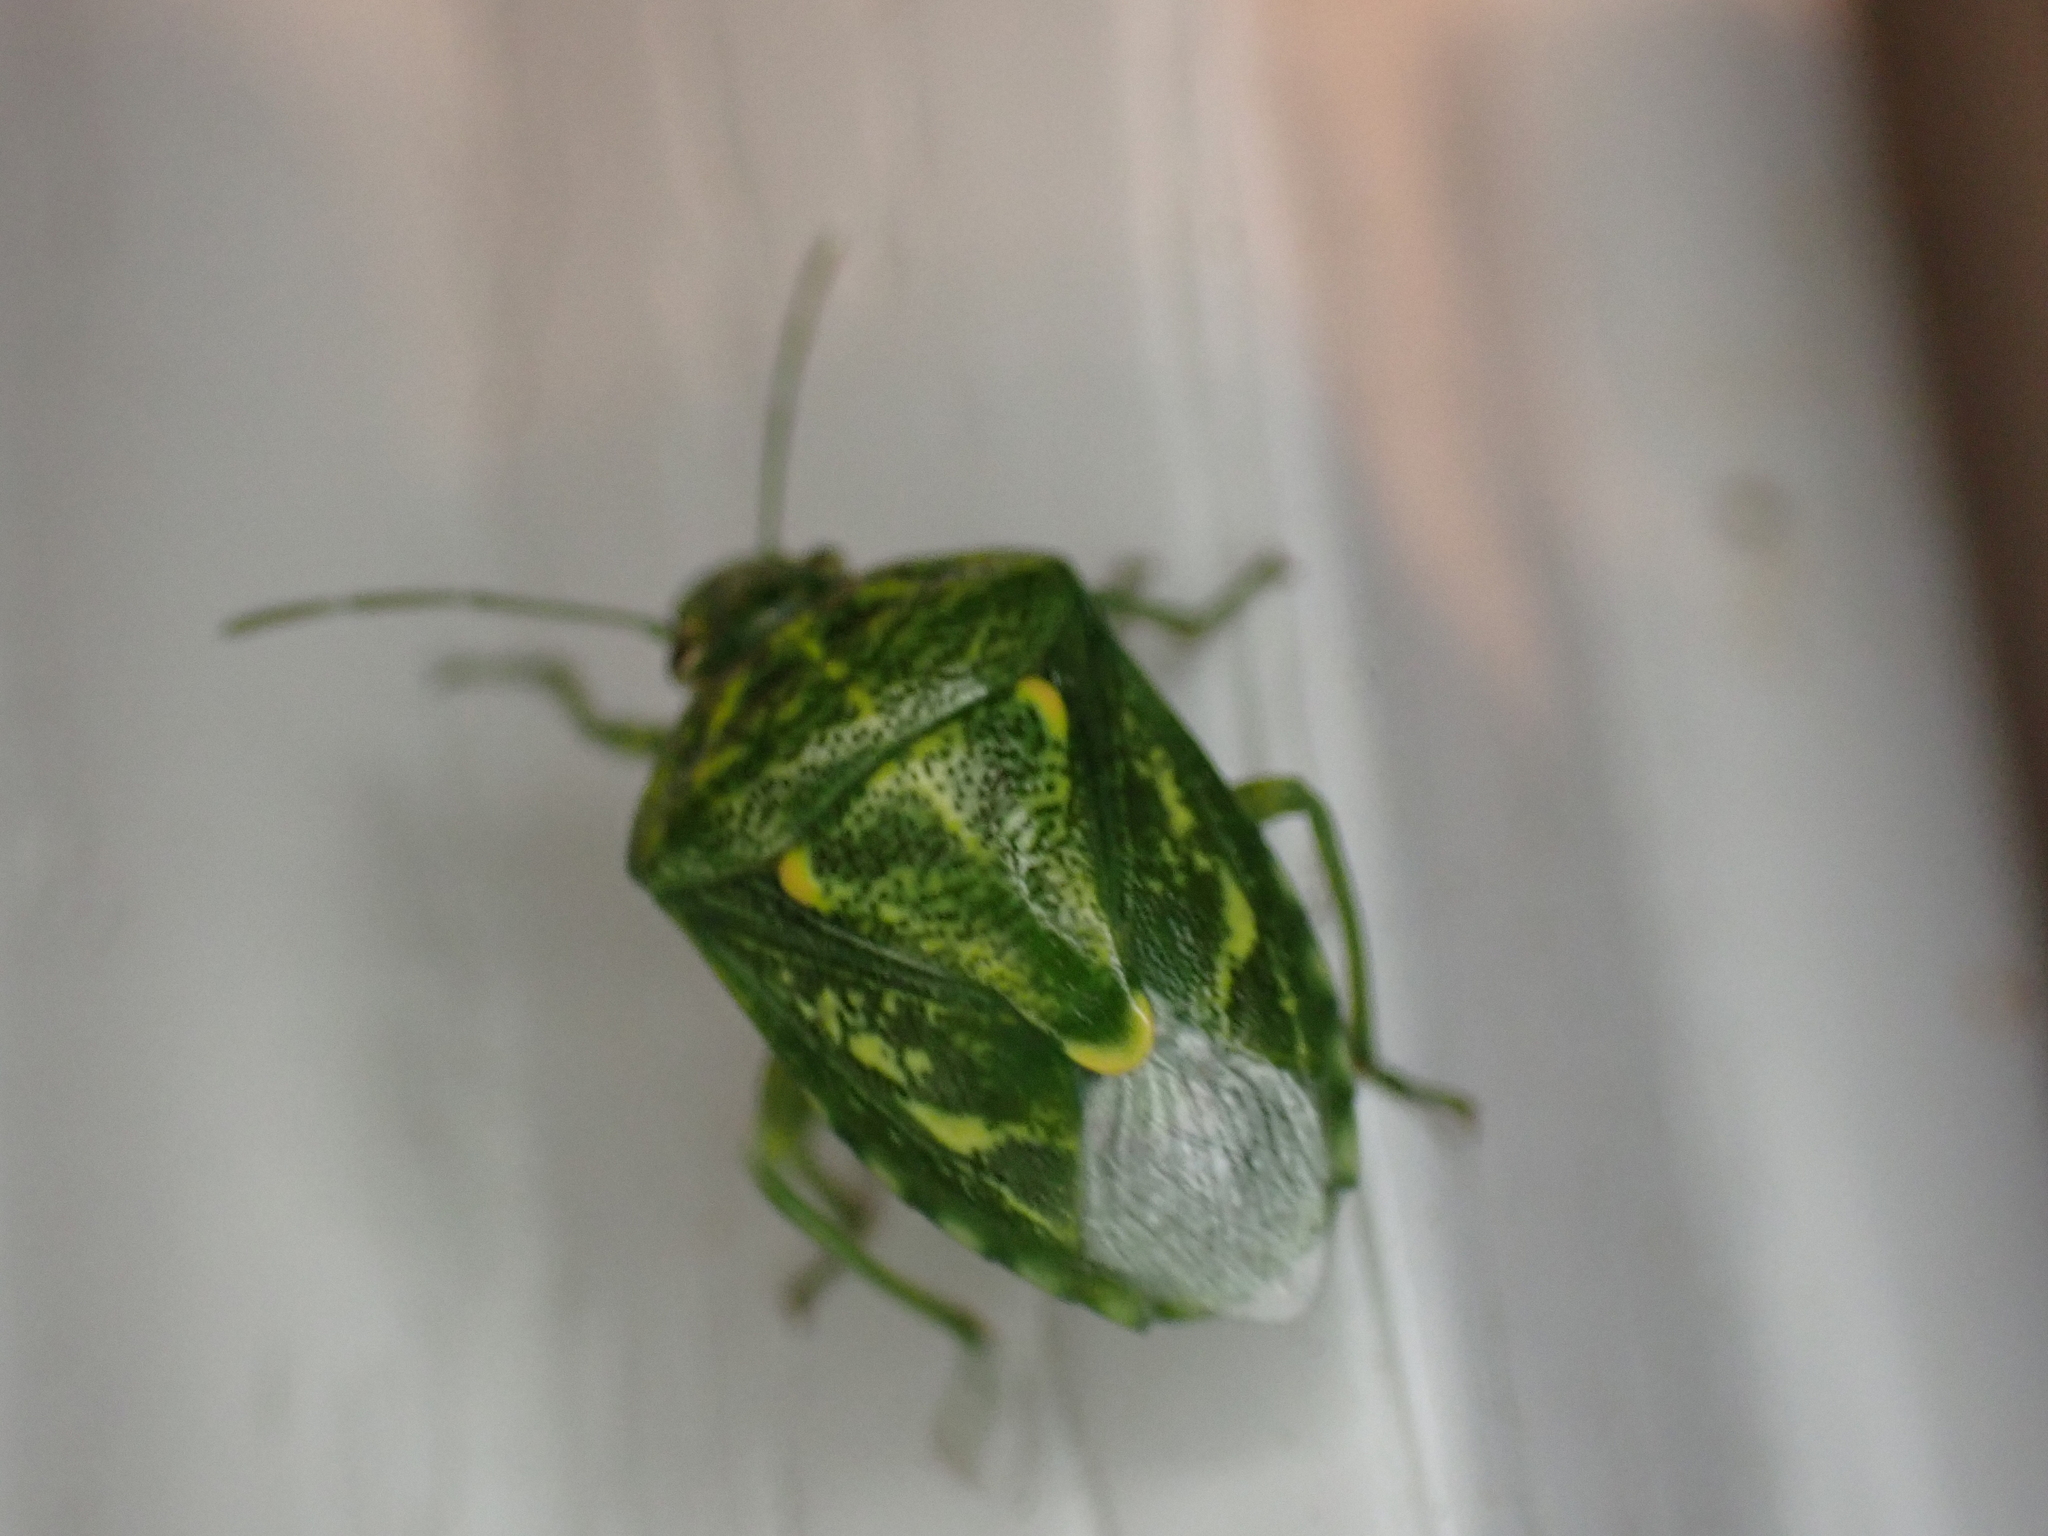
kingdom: Animalia
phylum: Arthropoda
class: Insecta
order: Hemiptera
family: Pentatomidae
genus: Banasa
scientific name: Banasa euchlora
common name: Cedar berry bug
